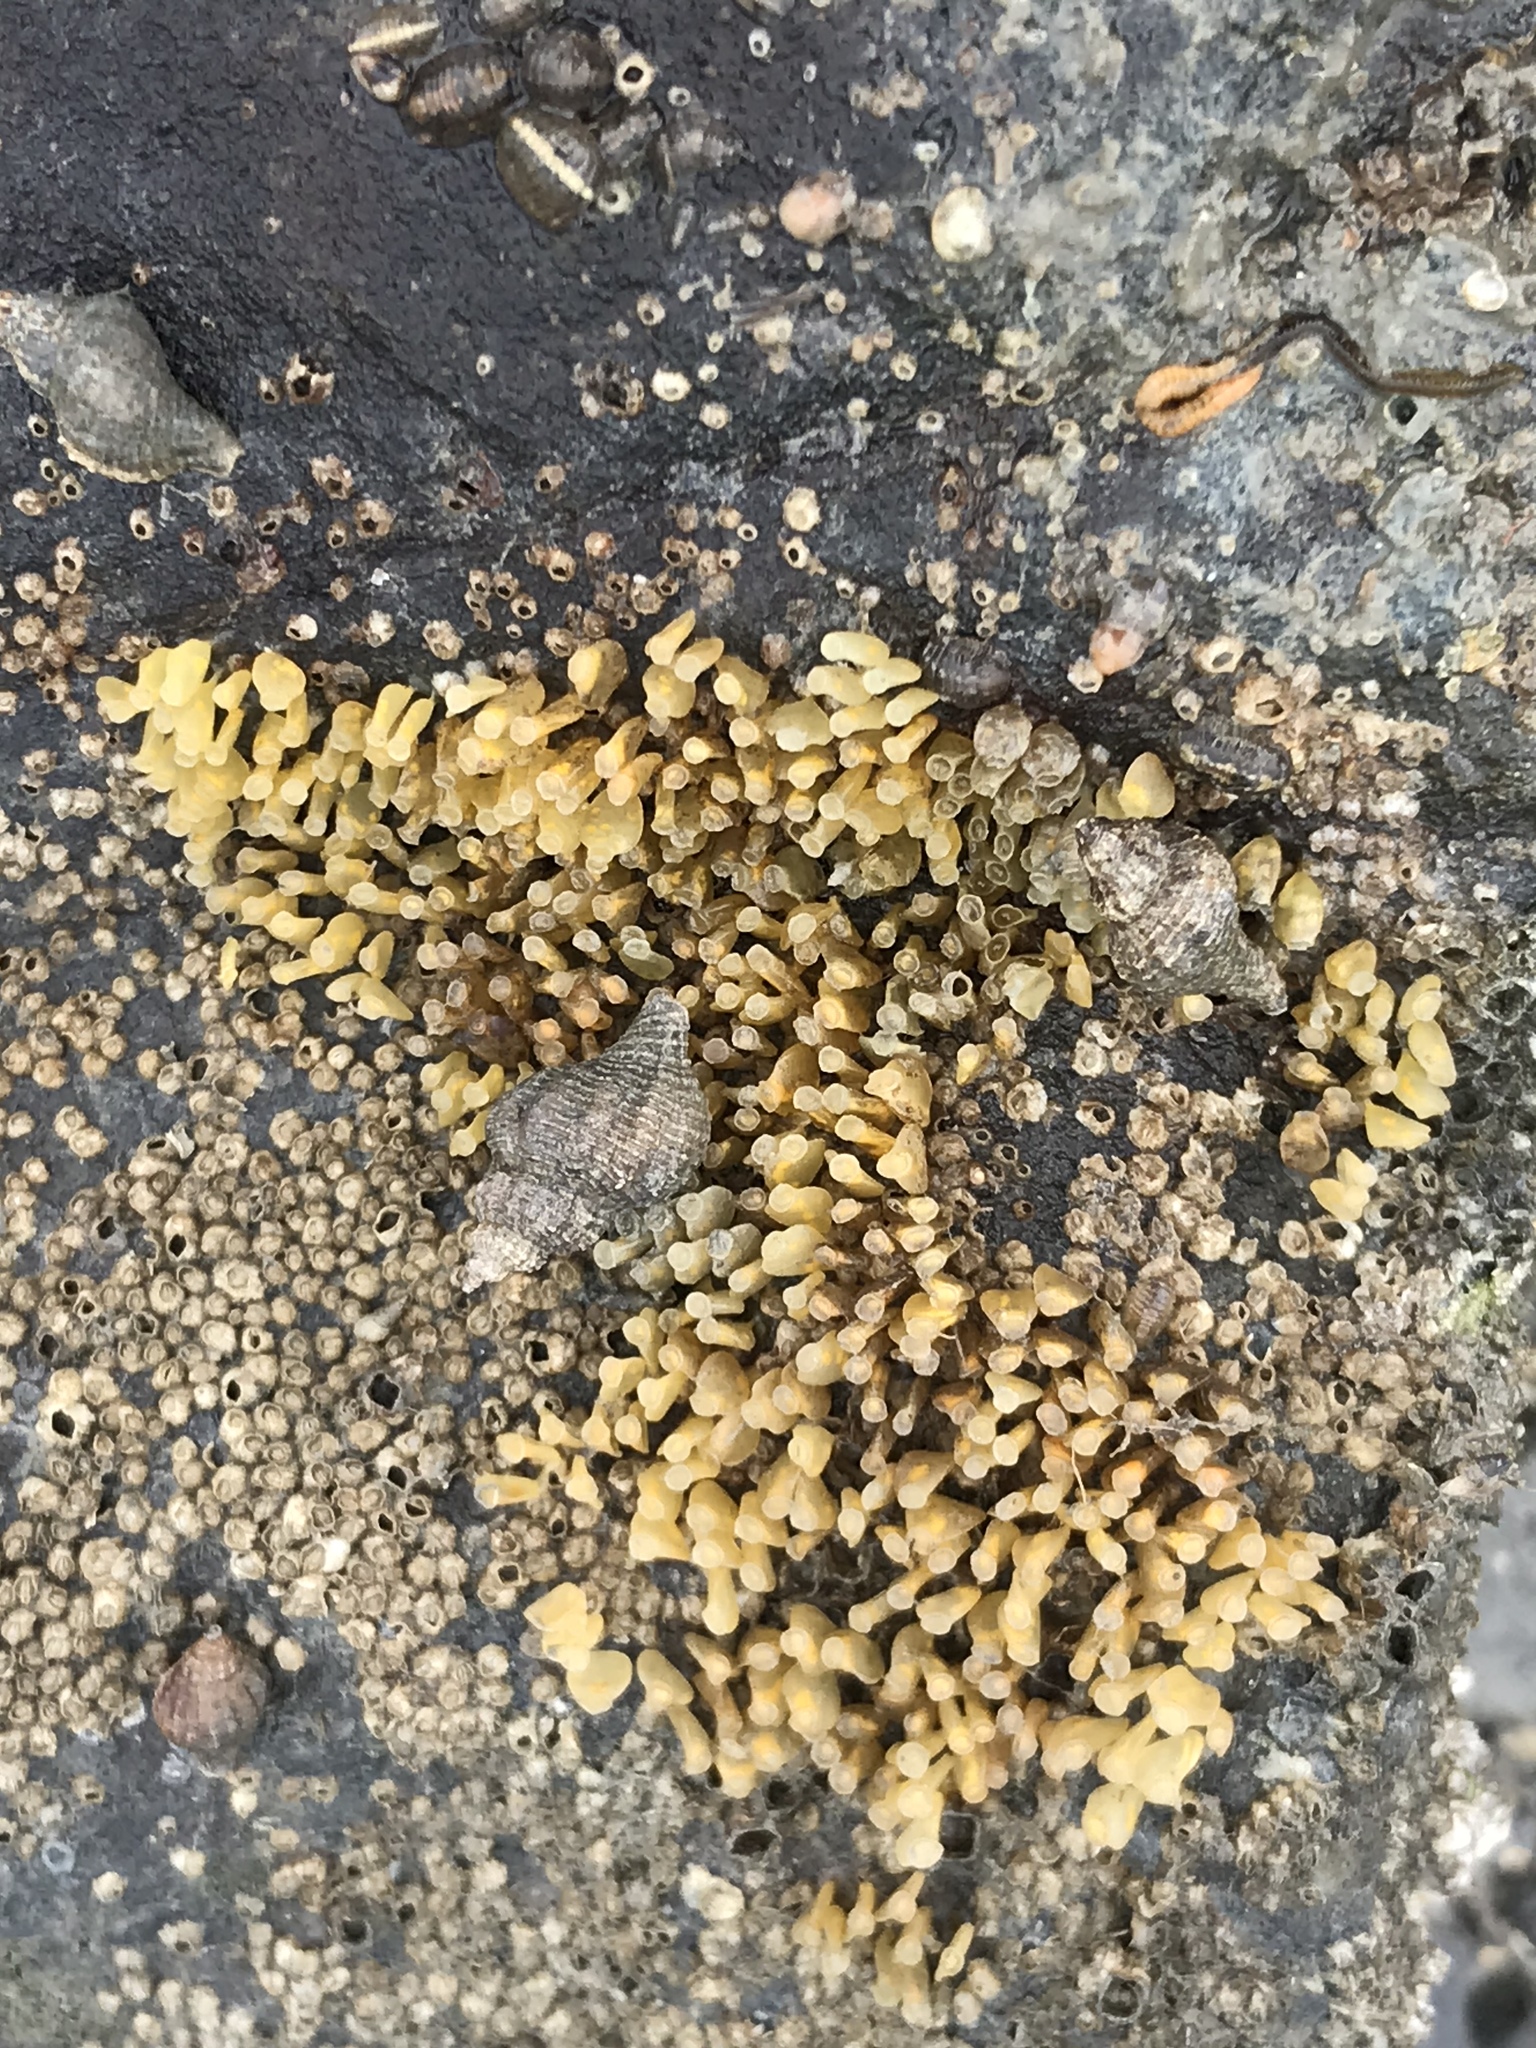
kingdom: Animalia
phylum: Mollusca
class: Gastropoda
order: Neogastropoda
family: Muricidae
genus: Urosalpinx
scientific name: Urosalpinx cinerea
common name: American sting winkle
